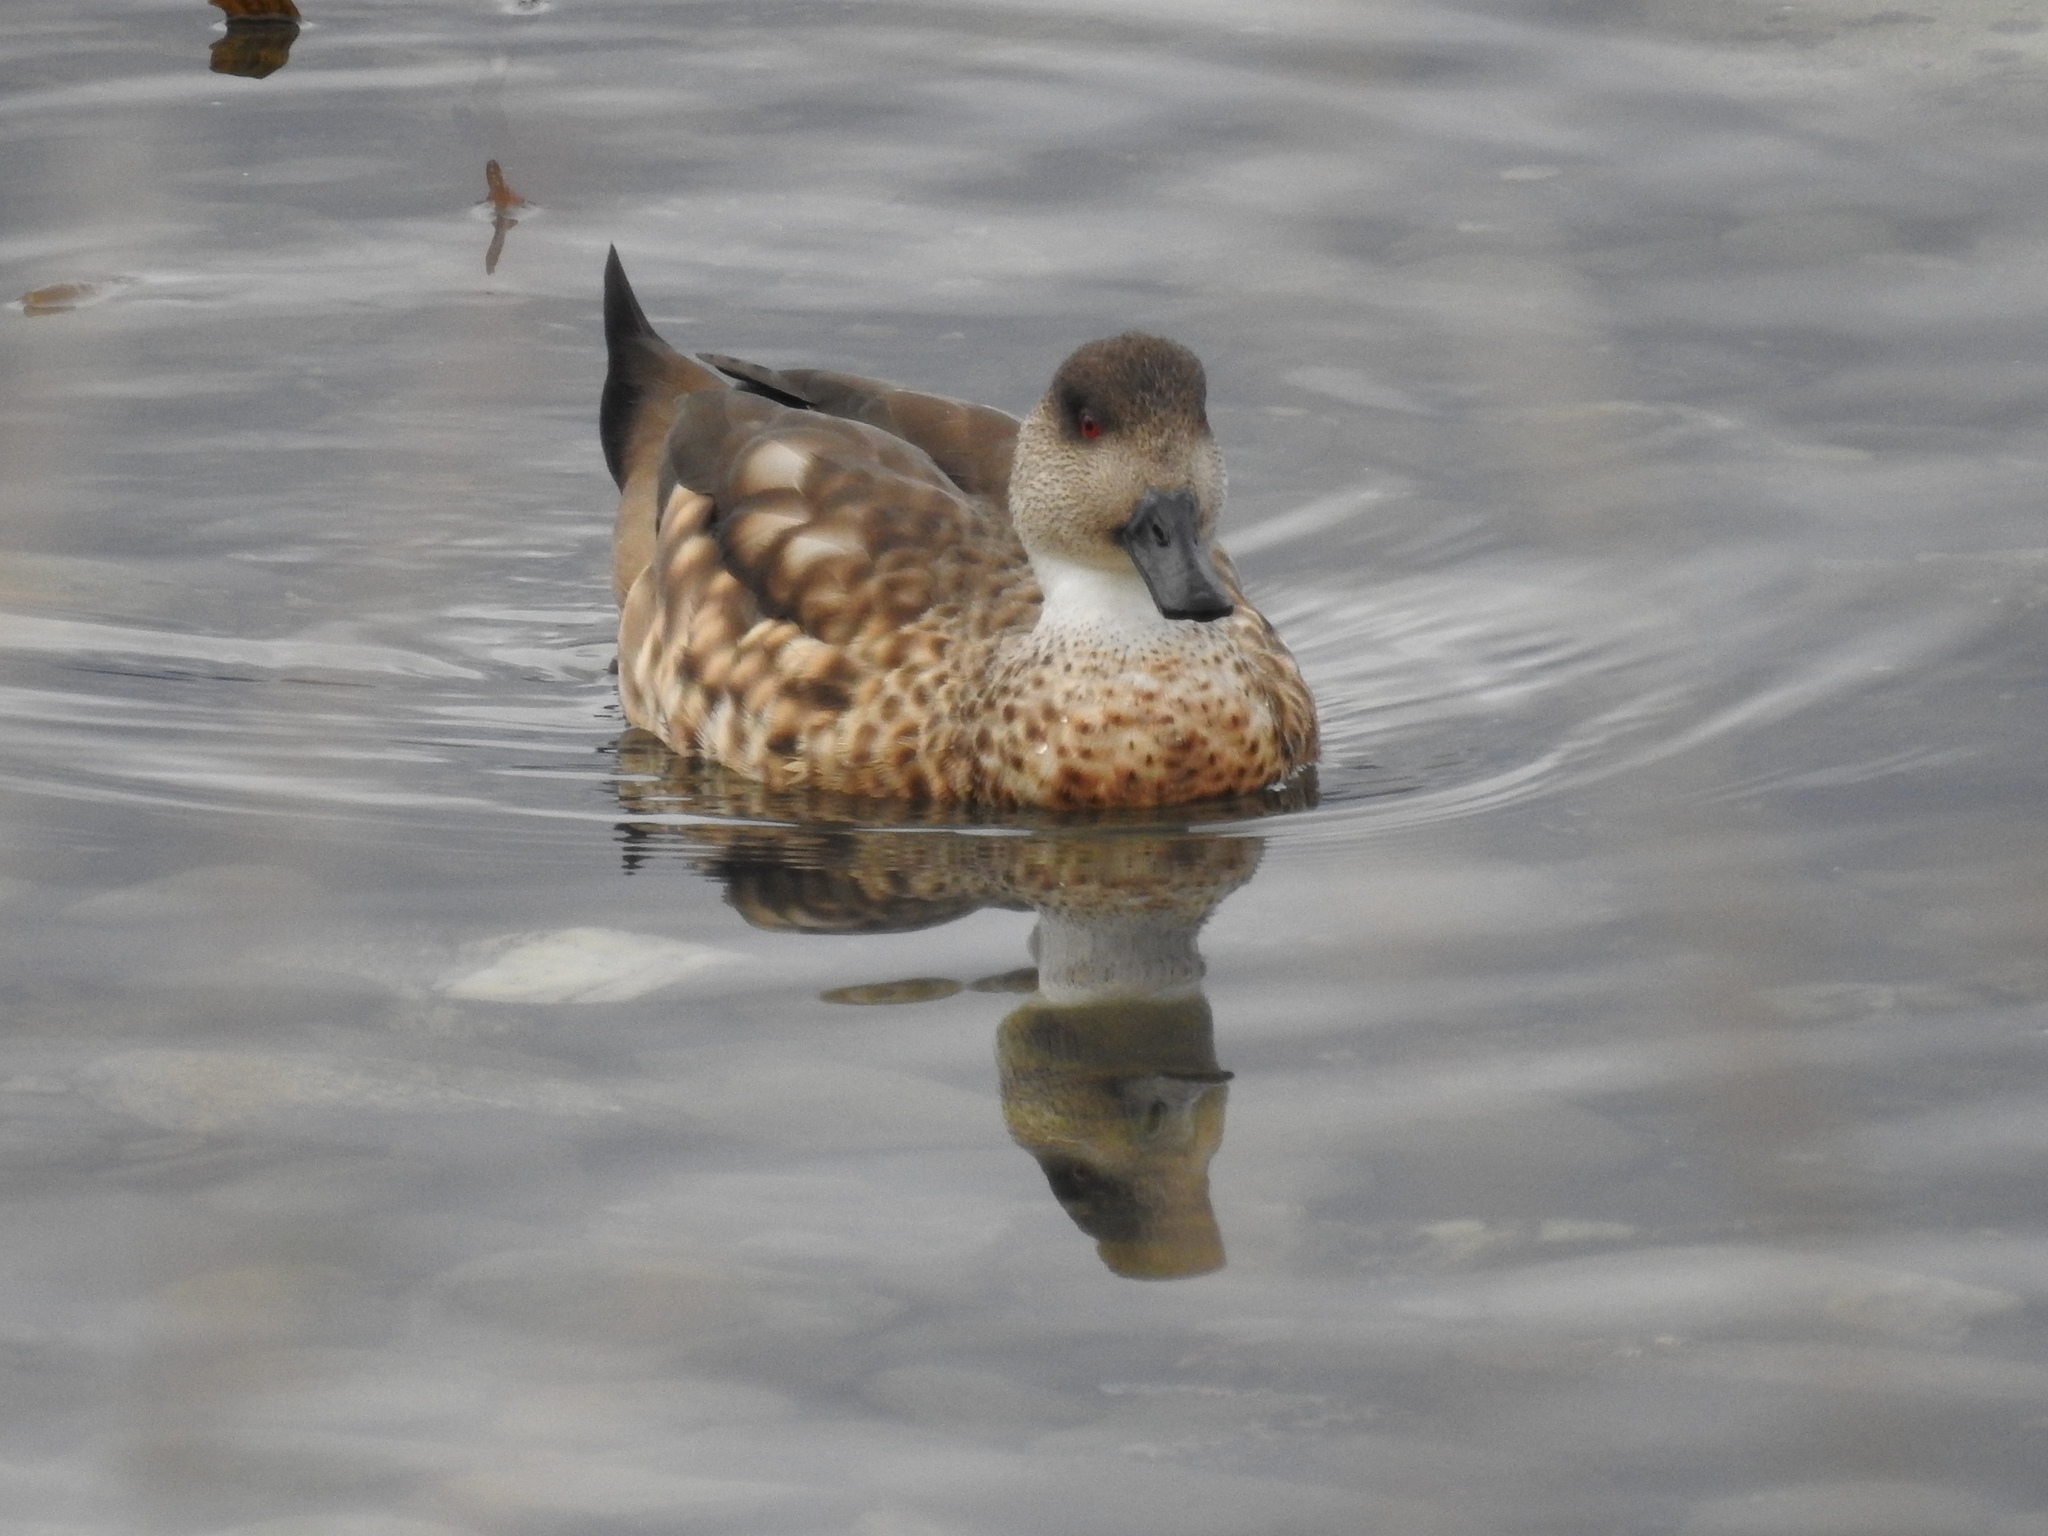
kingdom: Animalia
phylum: Chordata
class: Aves
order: Anseriformes
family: Anatidae
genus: Lophonetta
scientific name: Lophonetta specularioides
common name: Crested duck
